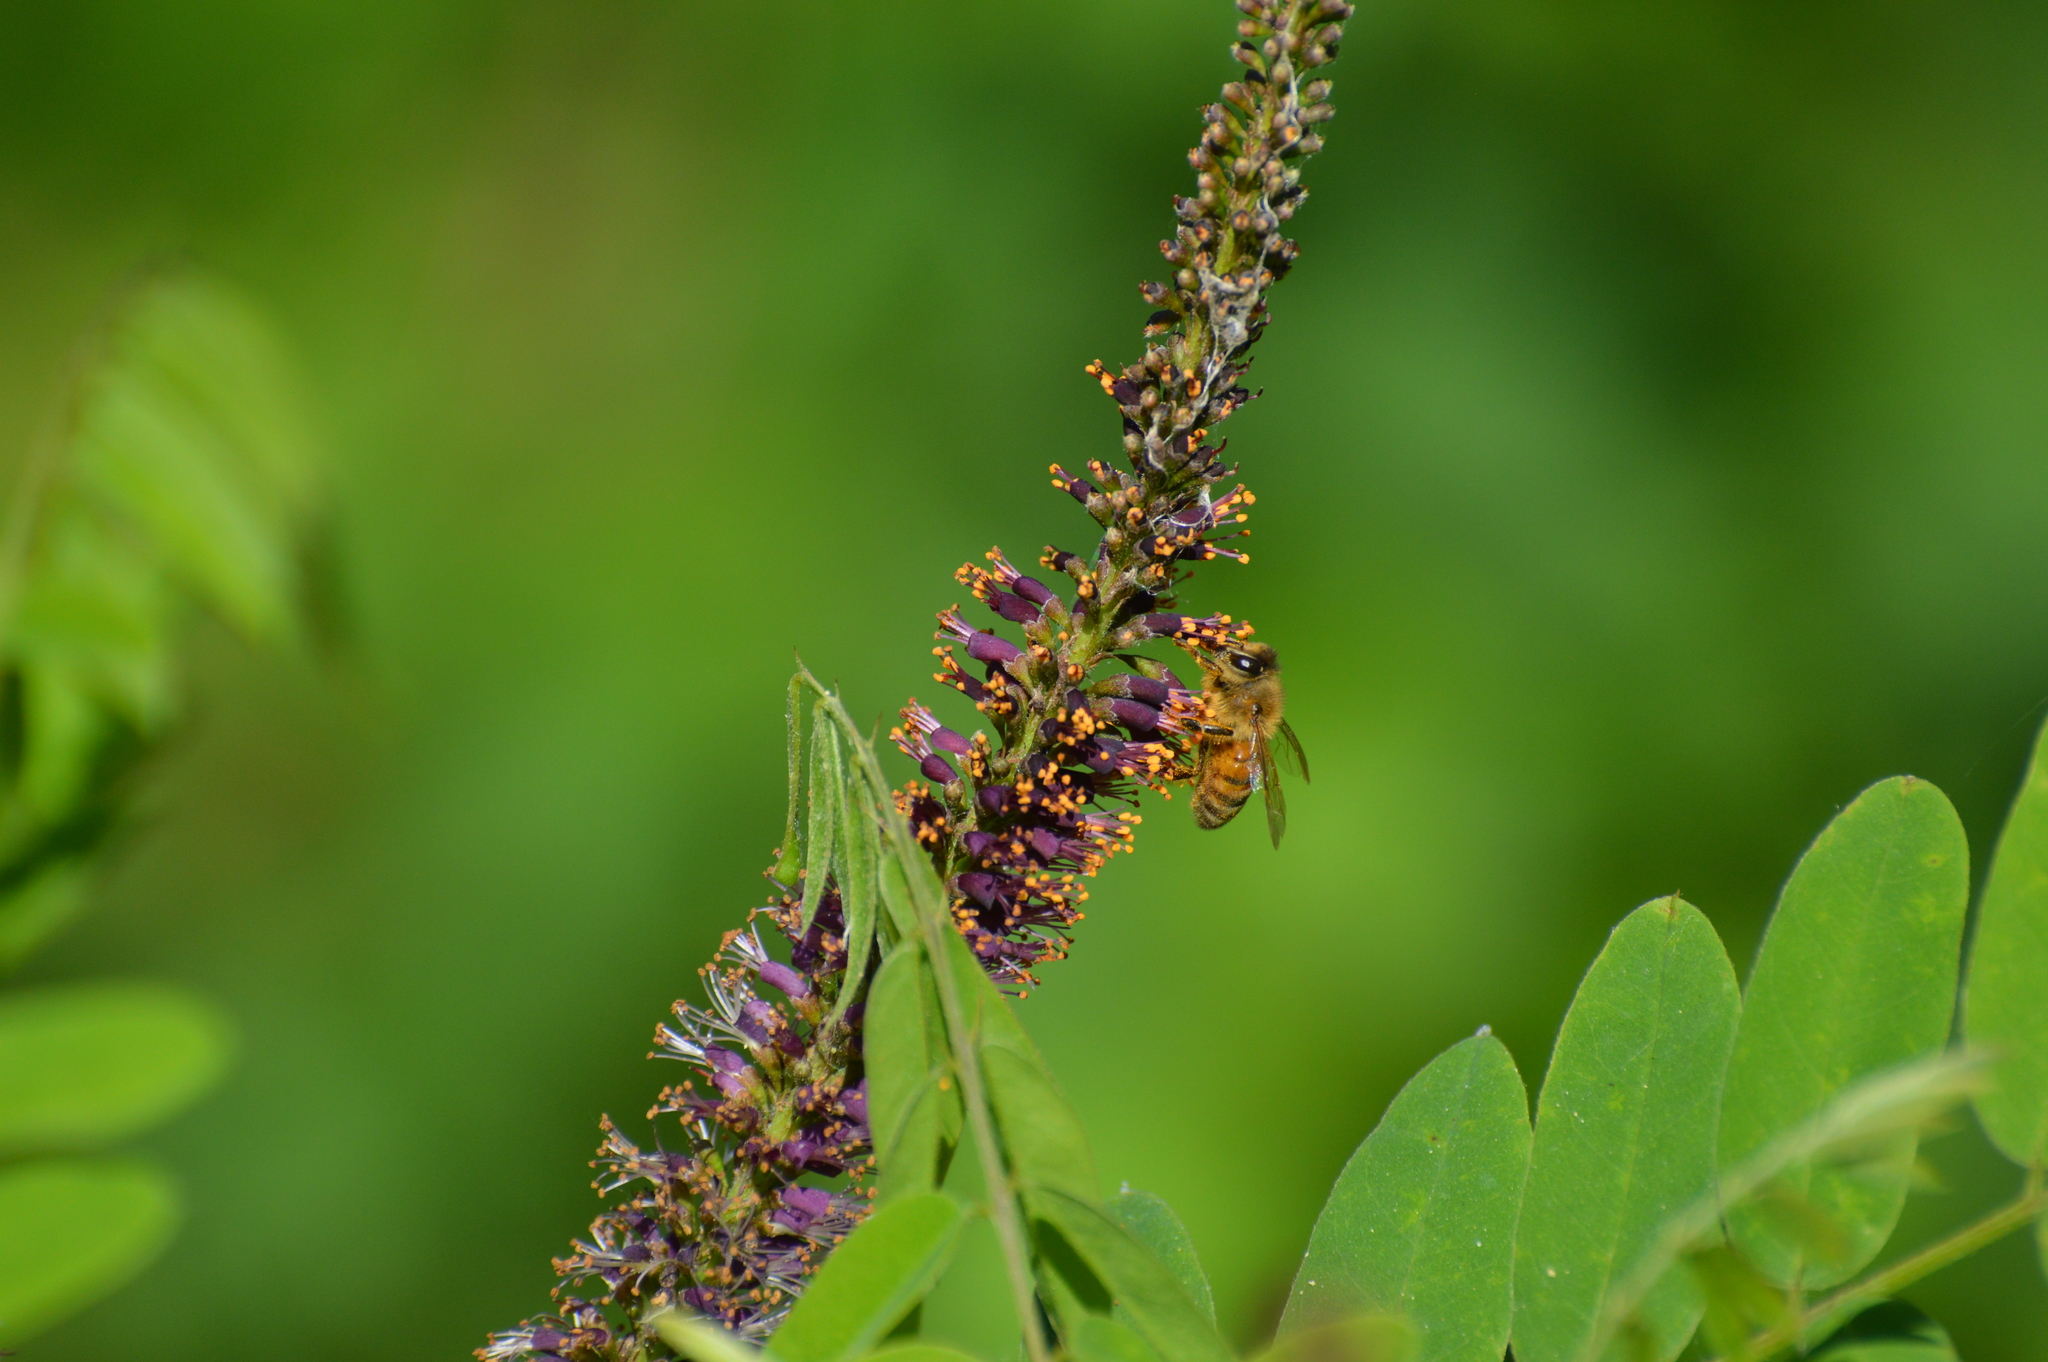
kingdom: Animalia
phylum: Arthropoda
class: Insecta
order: Hymenoptera
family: Apidae
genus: Apis
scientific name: Apis mellifera
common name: Honey bee
